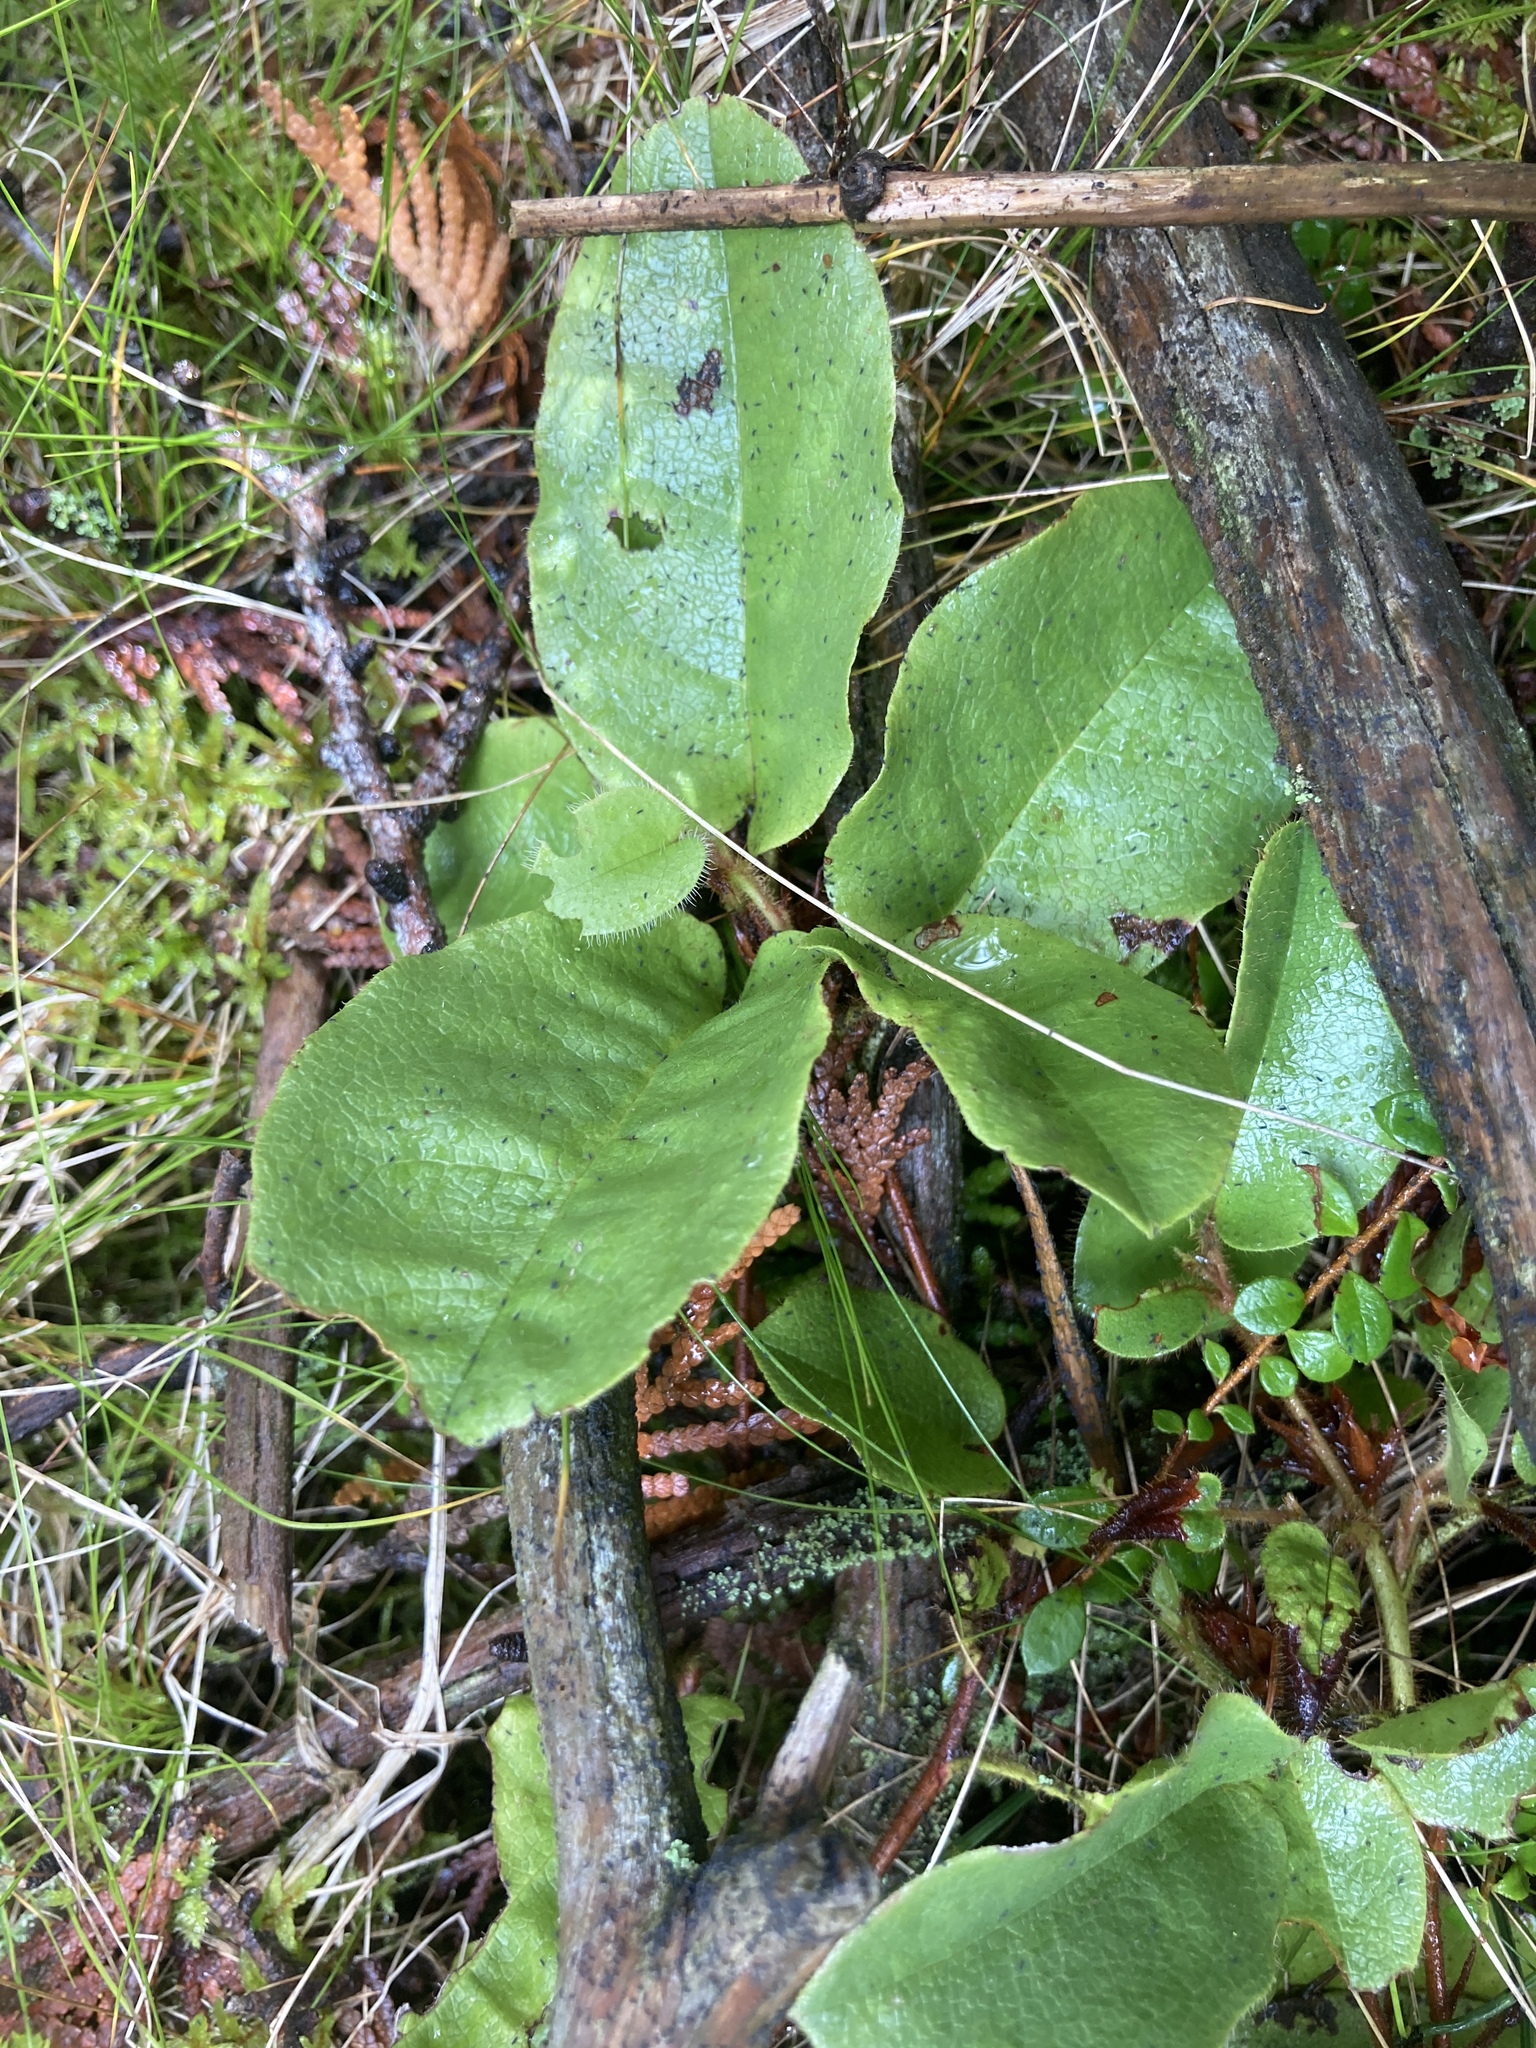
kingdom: Plantae
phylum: Tracheophyta
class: Magnoliopsida
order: Ericales
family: Ericaceae
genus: Epigaea
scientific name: Epigaea repens
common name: Gravelroot
